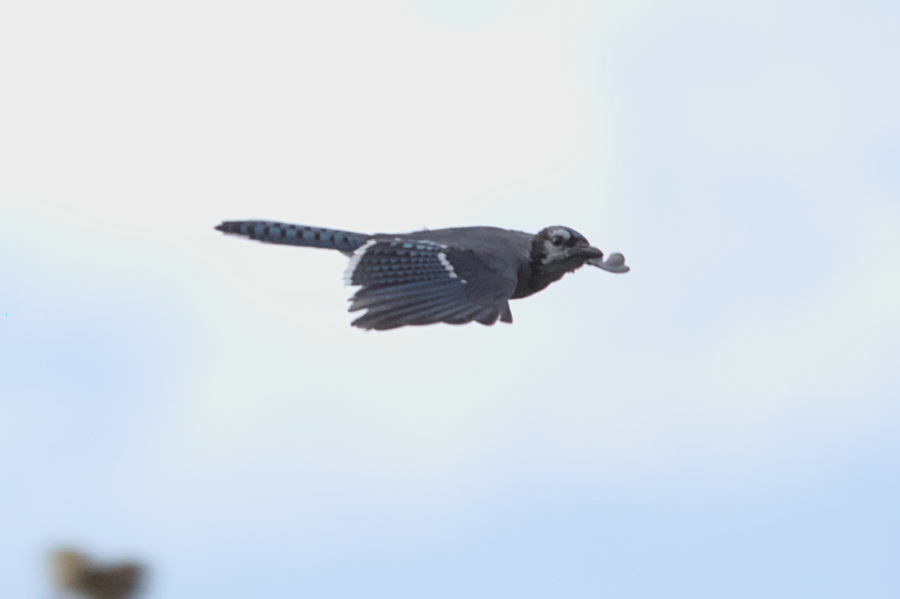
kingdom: Animalia
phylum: Chordata
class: Aves
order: Passeriformes
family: Corvidae
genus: Cyanocitta
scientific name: Cyanocitta cristata
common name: Blue jay
